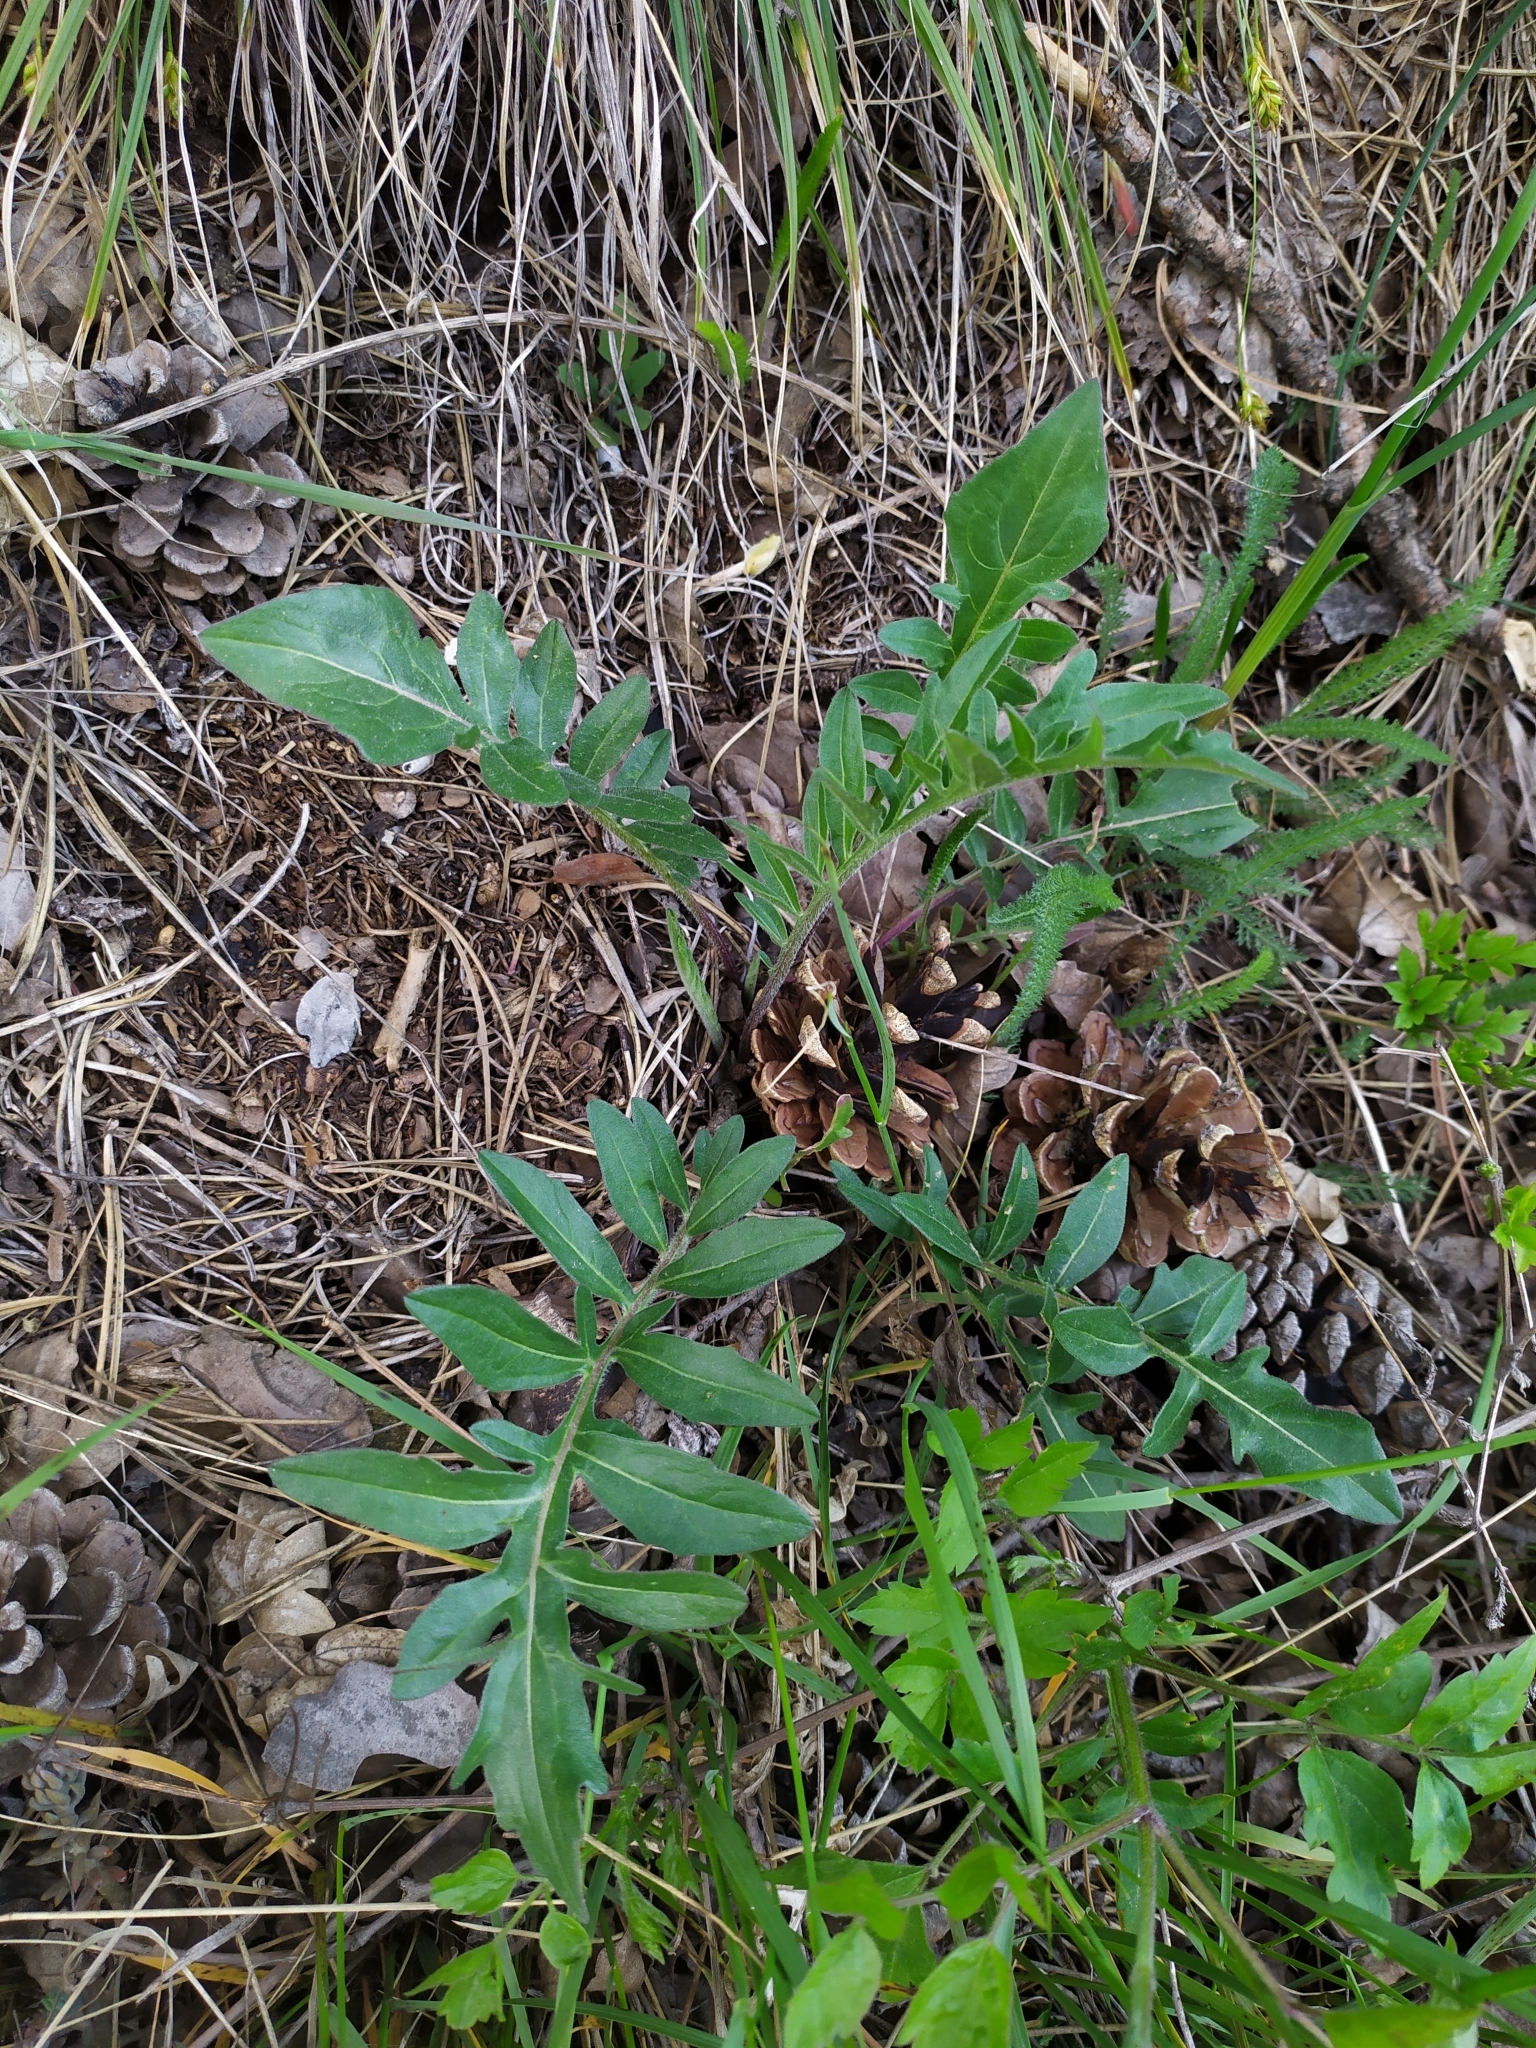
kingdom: Plantae
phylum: Tracheophyta
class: Magnoliopsida
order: Asterales
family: Asteraceae
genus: Centaurea
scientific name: Centaurea scabiosa
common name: Greater knapweed
